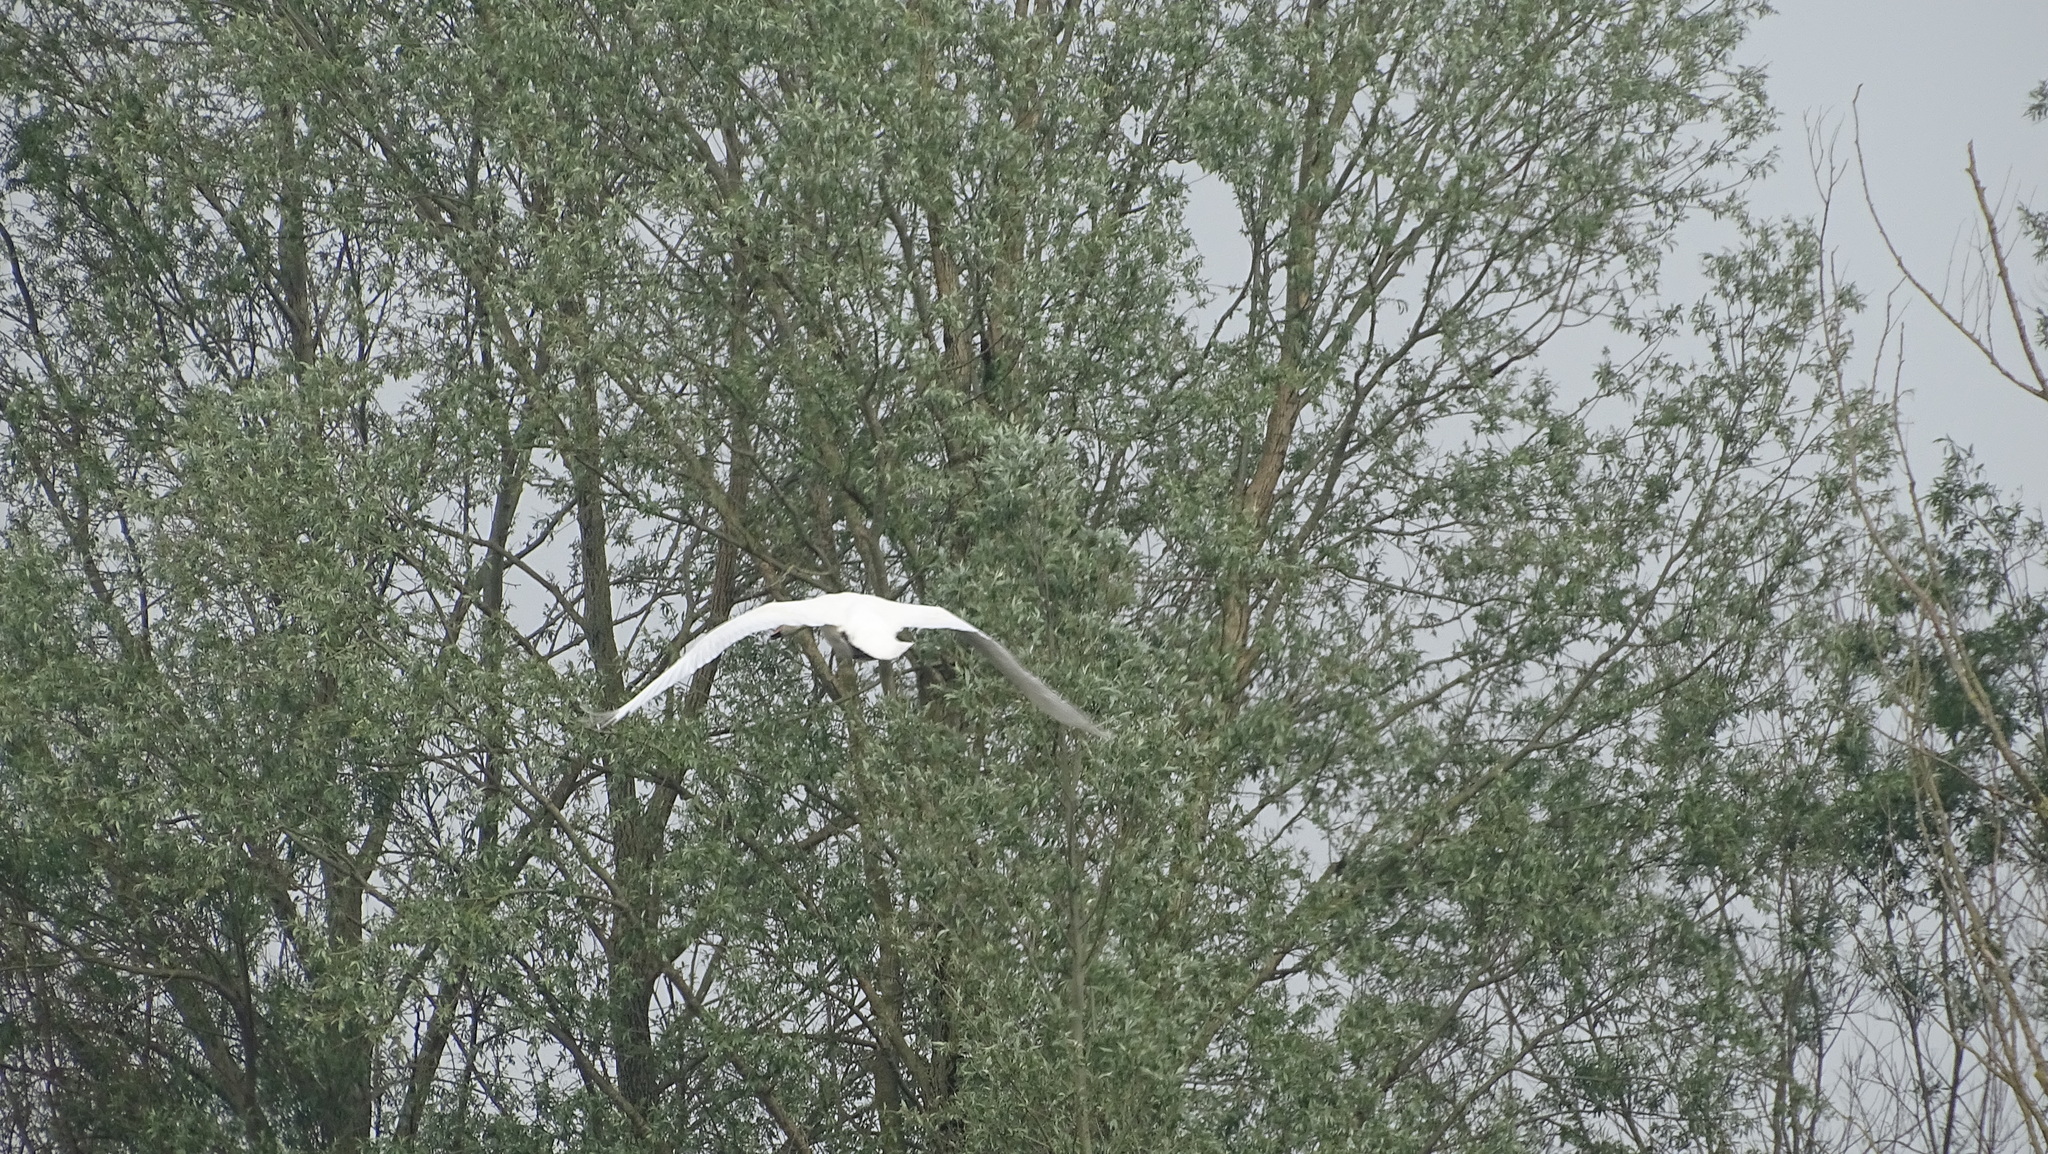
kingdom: Animalia
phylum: Chordata
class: Aves
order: Anseriformes
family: Anatidae
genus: Cygnus
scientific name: Cygnus olor
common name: Mute swan
